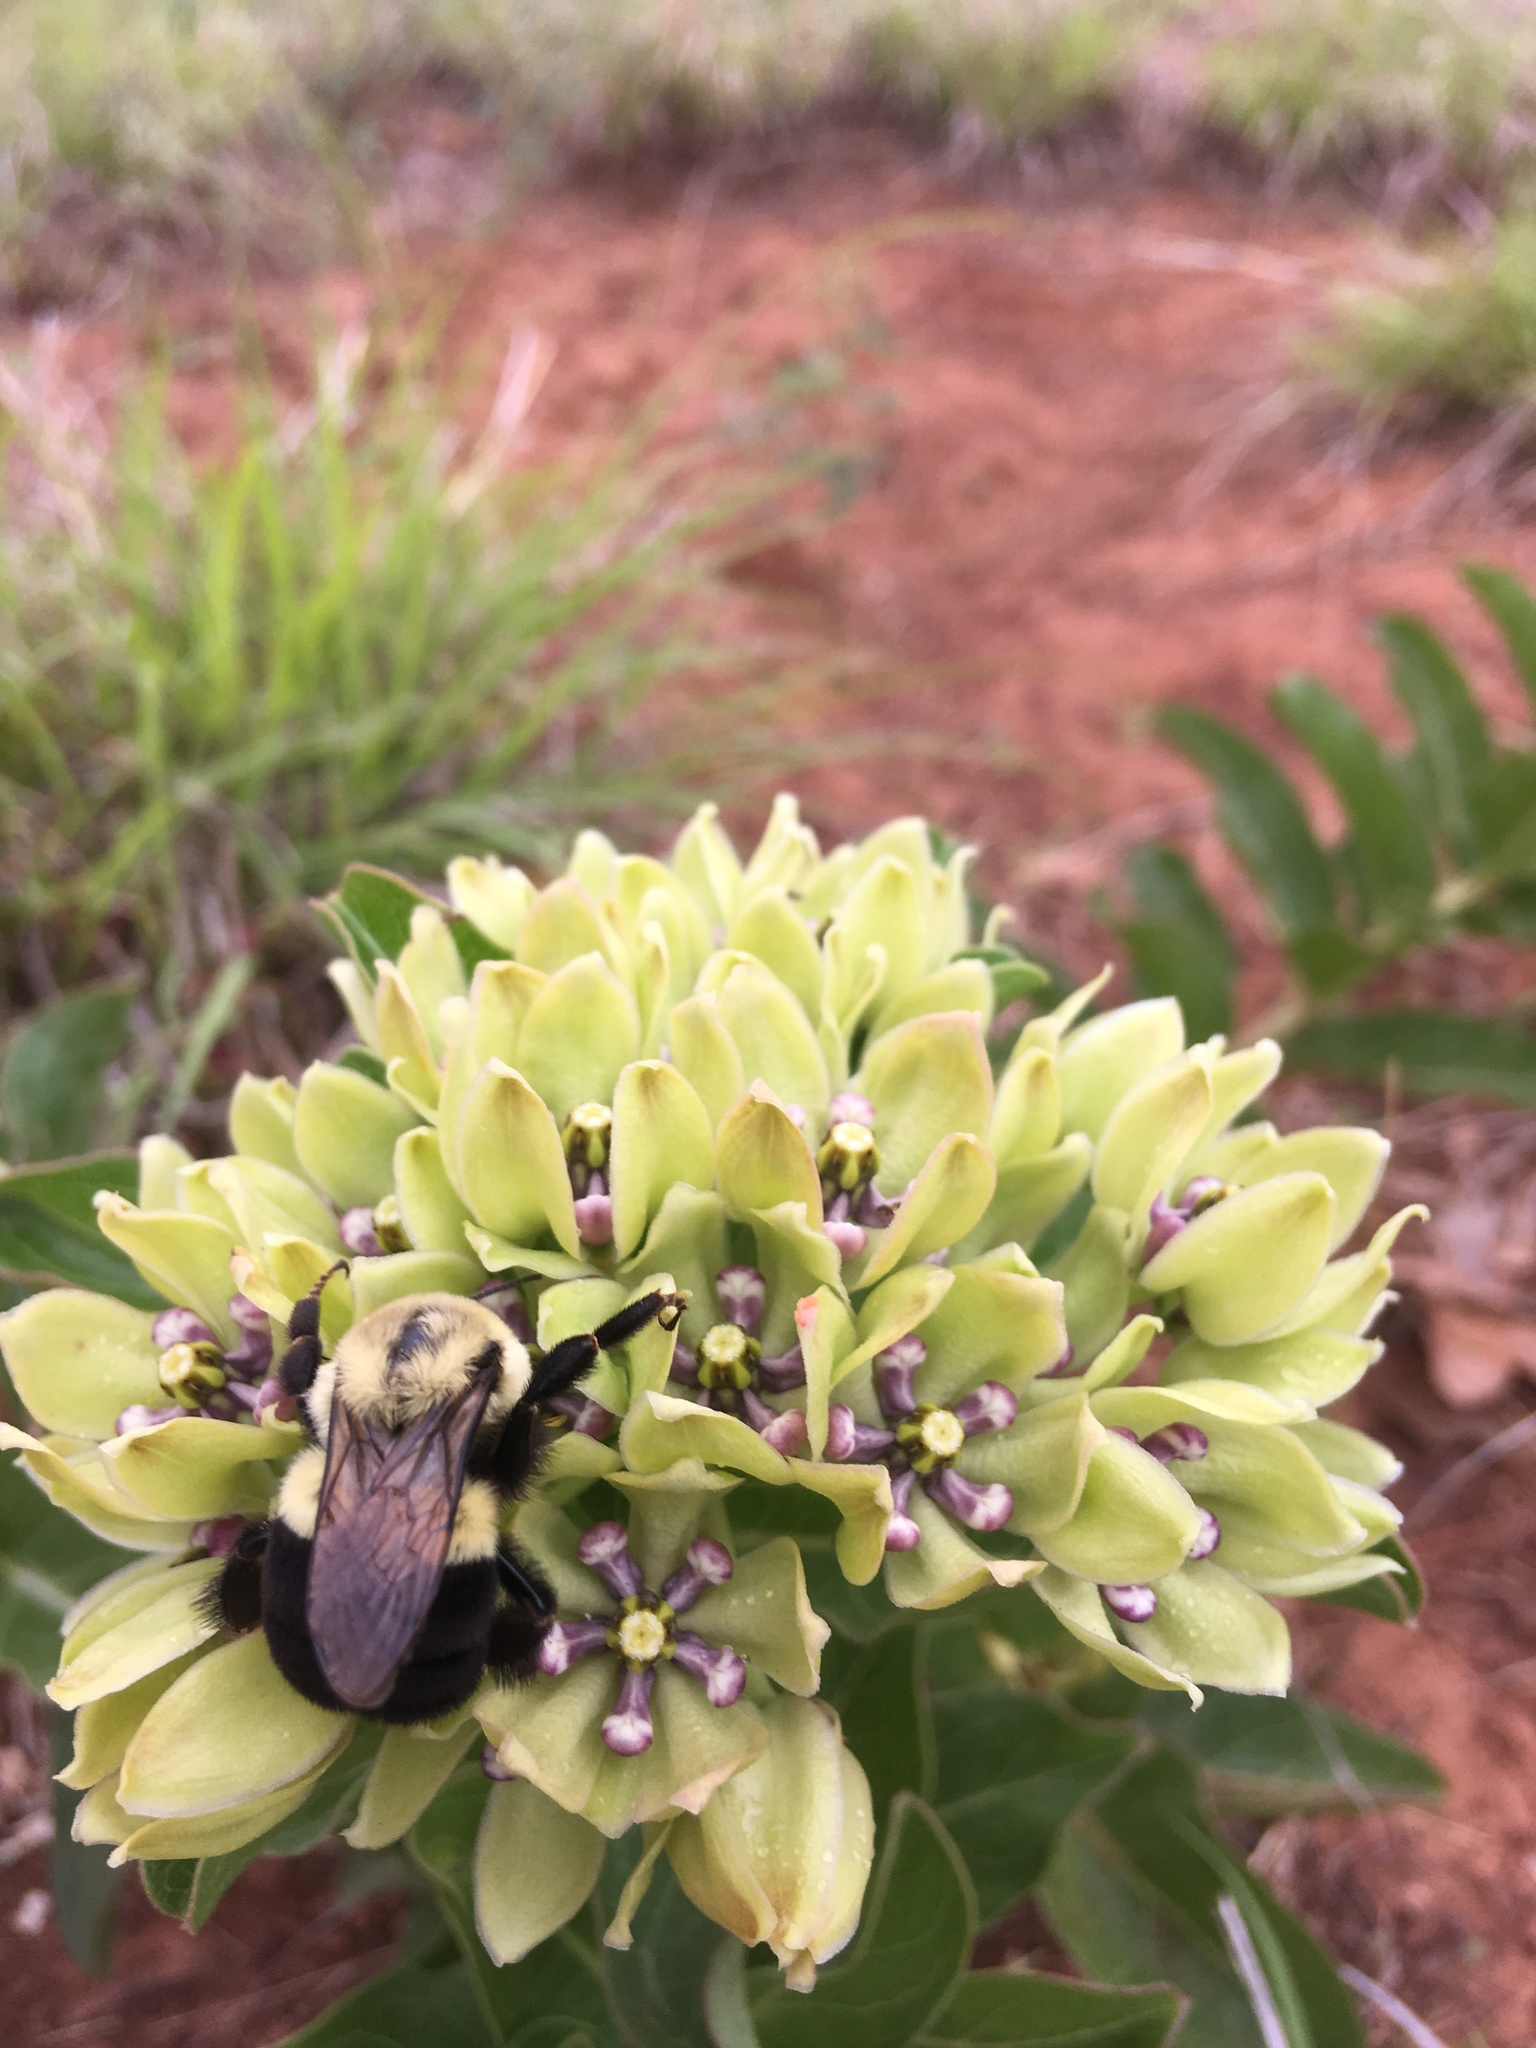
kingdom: Animalia
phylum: Arthropoda
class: Insecta
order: Hymenoptera
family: Apidae
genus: Bombus
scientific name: Bombus impatiens
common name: Common eastern bumble bee
